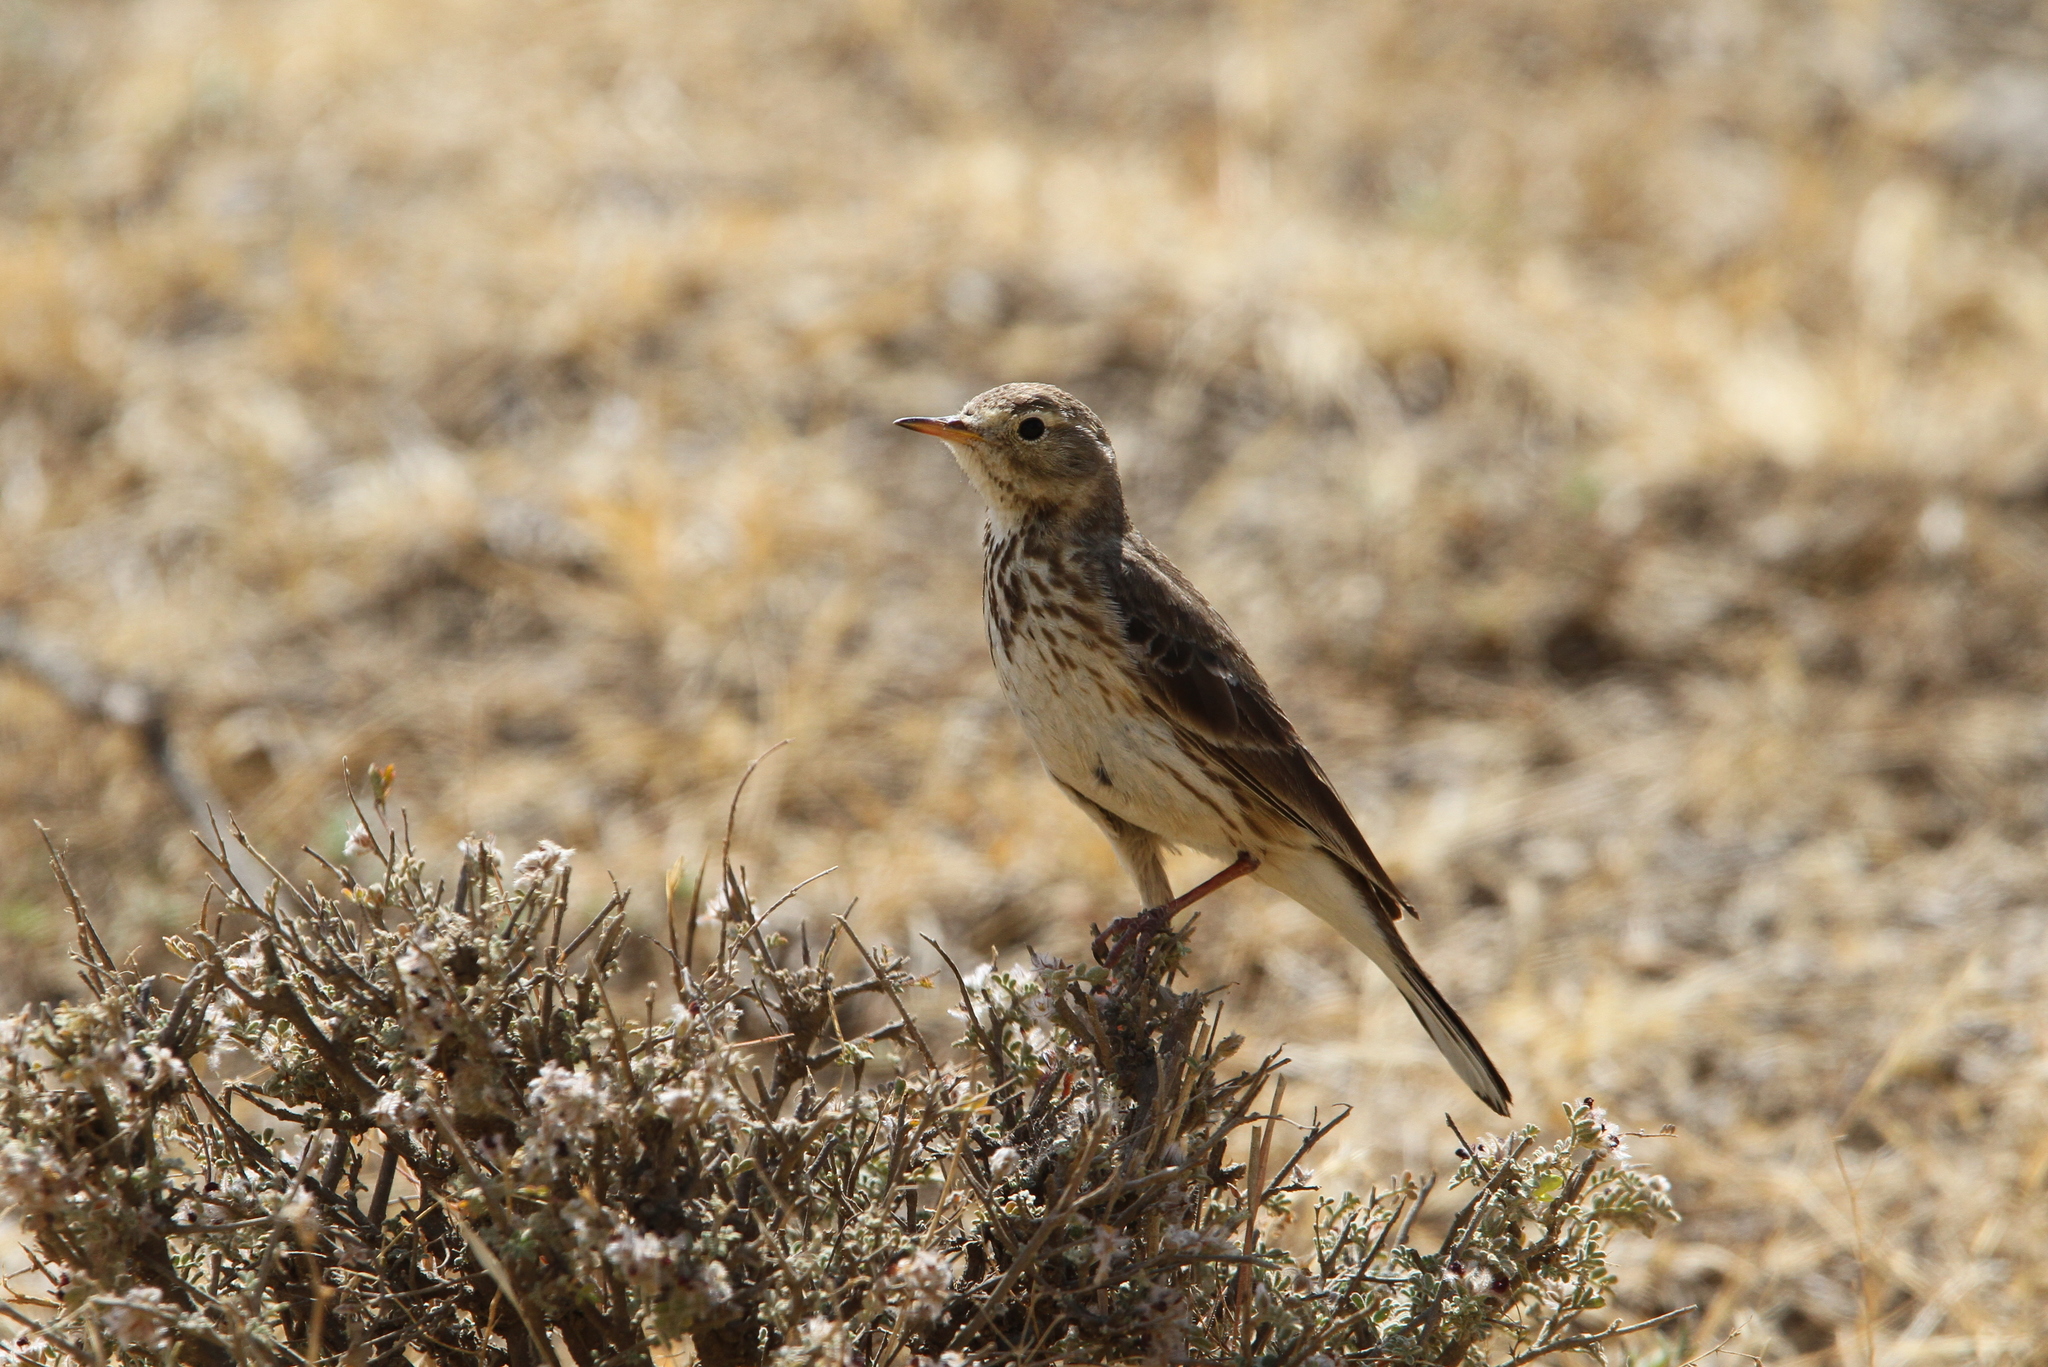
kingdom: Animalia
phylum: Chordata
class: Aves
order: Passeriformes
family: Motacillidae
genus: Anthus
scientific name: Anthus rubescens
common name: Buff-bellied pipit
